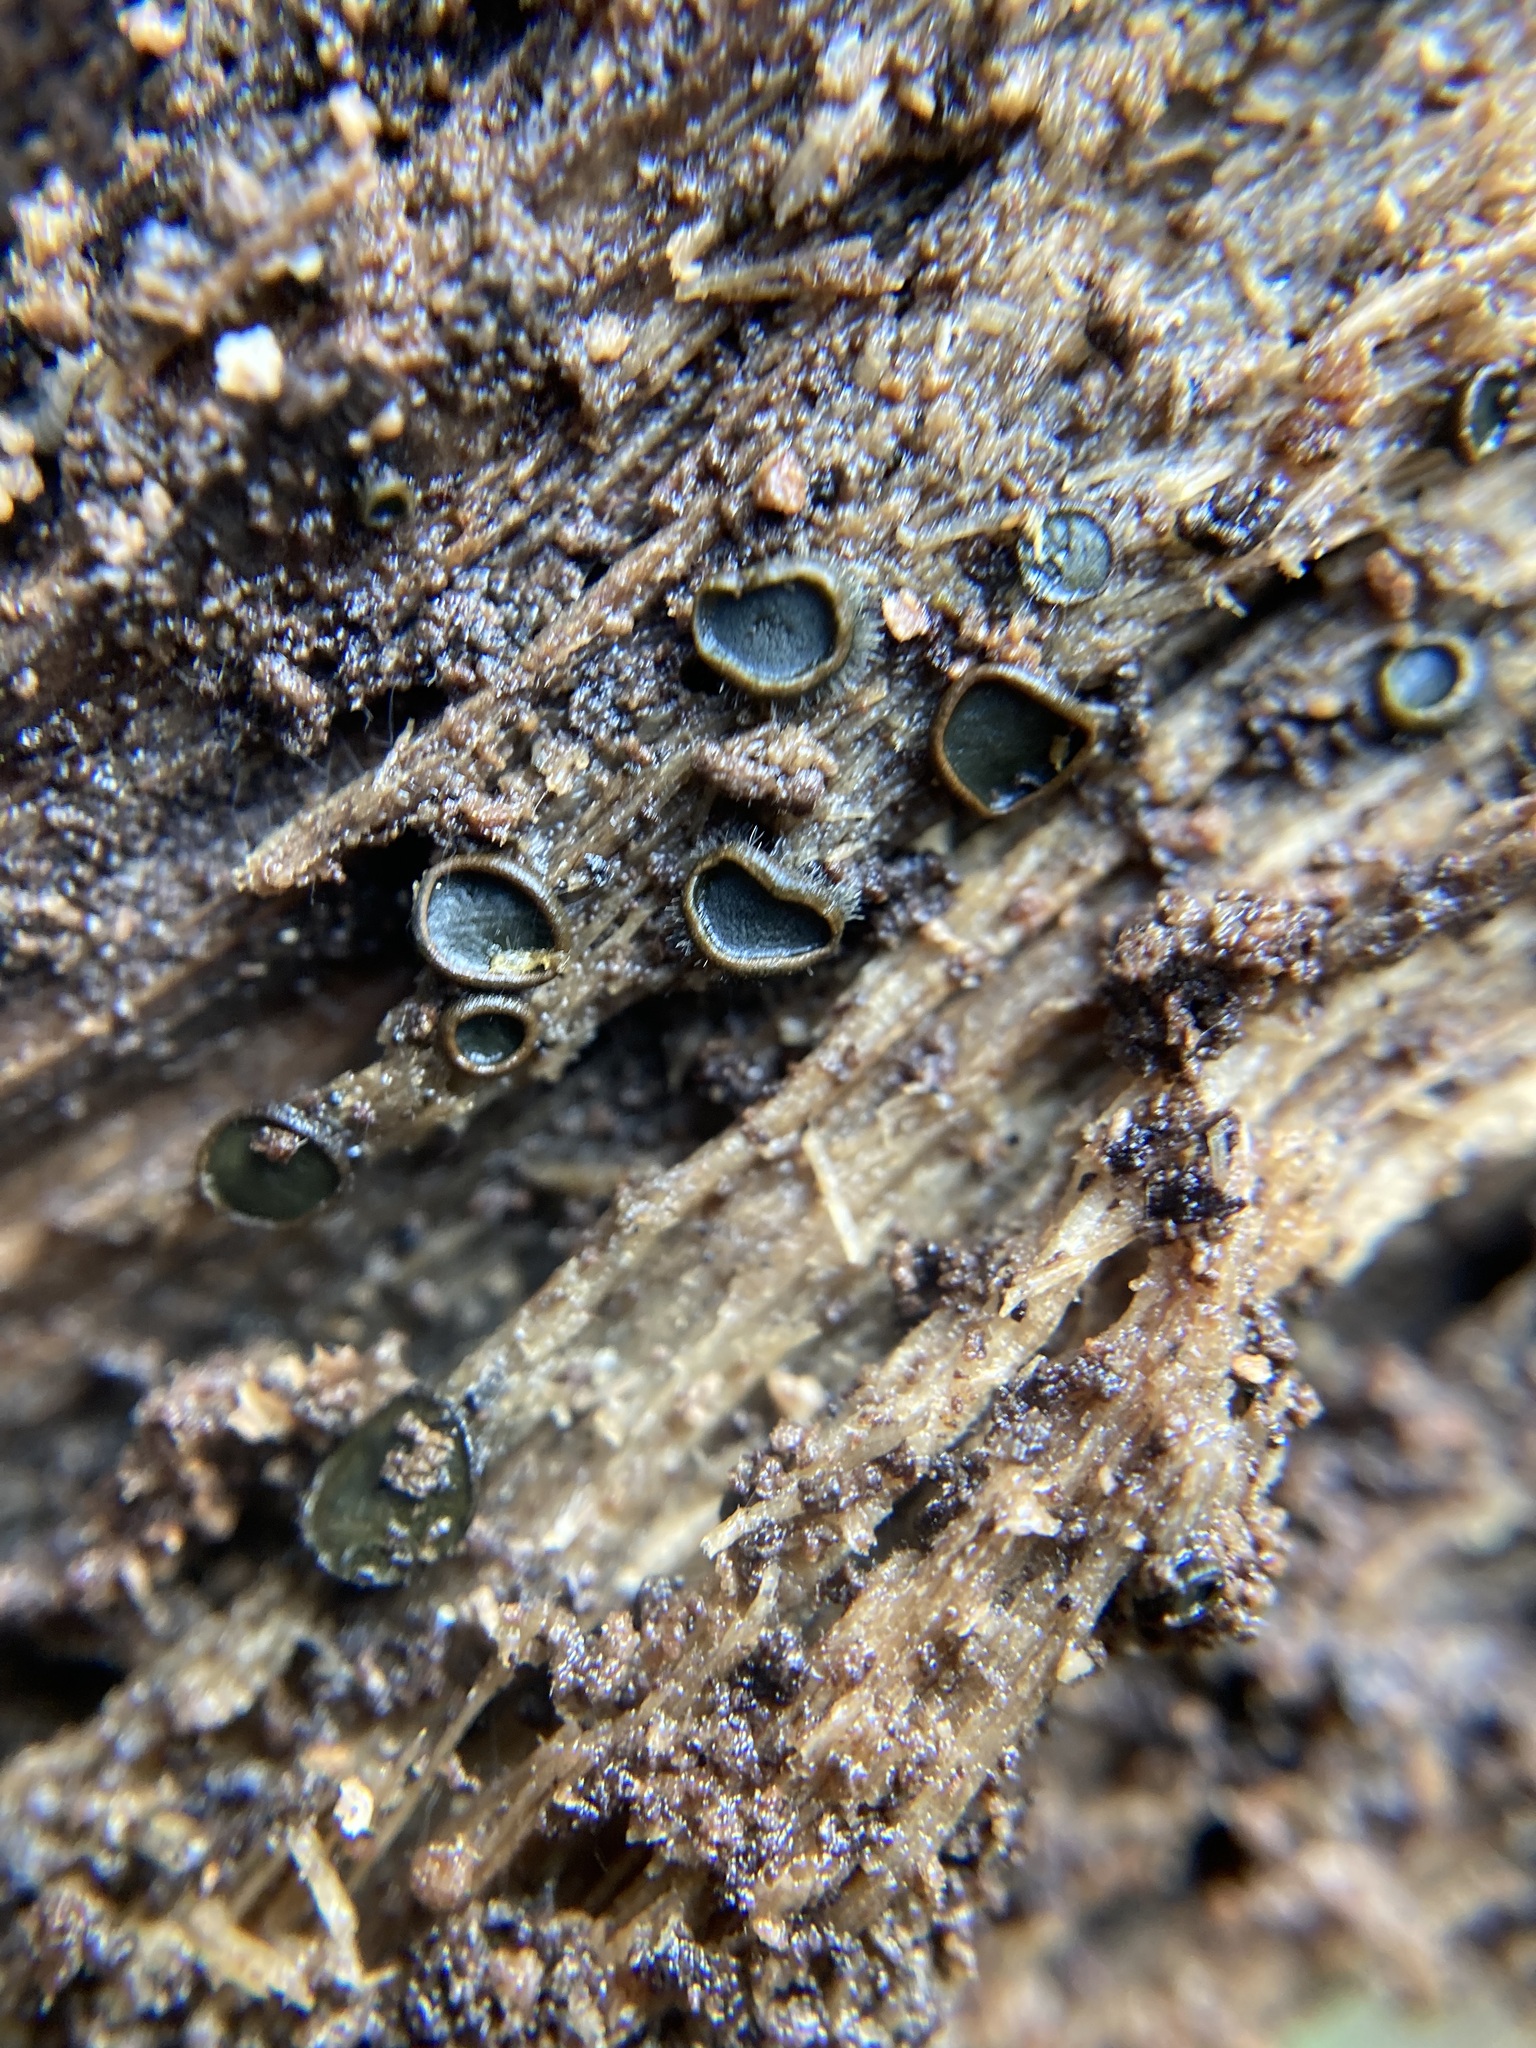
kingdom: Fungi
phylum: Ascomycota
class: Dothideomycetes
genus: Catinella
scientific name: Catinella olivacea
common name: Olive salver
